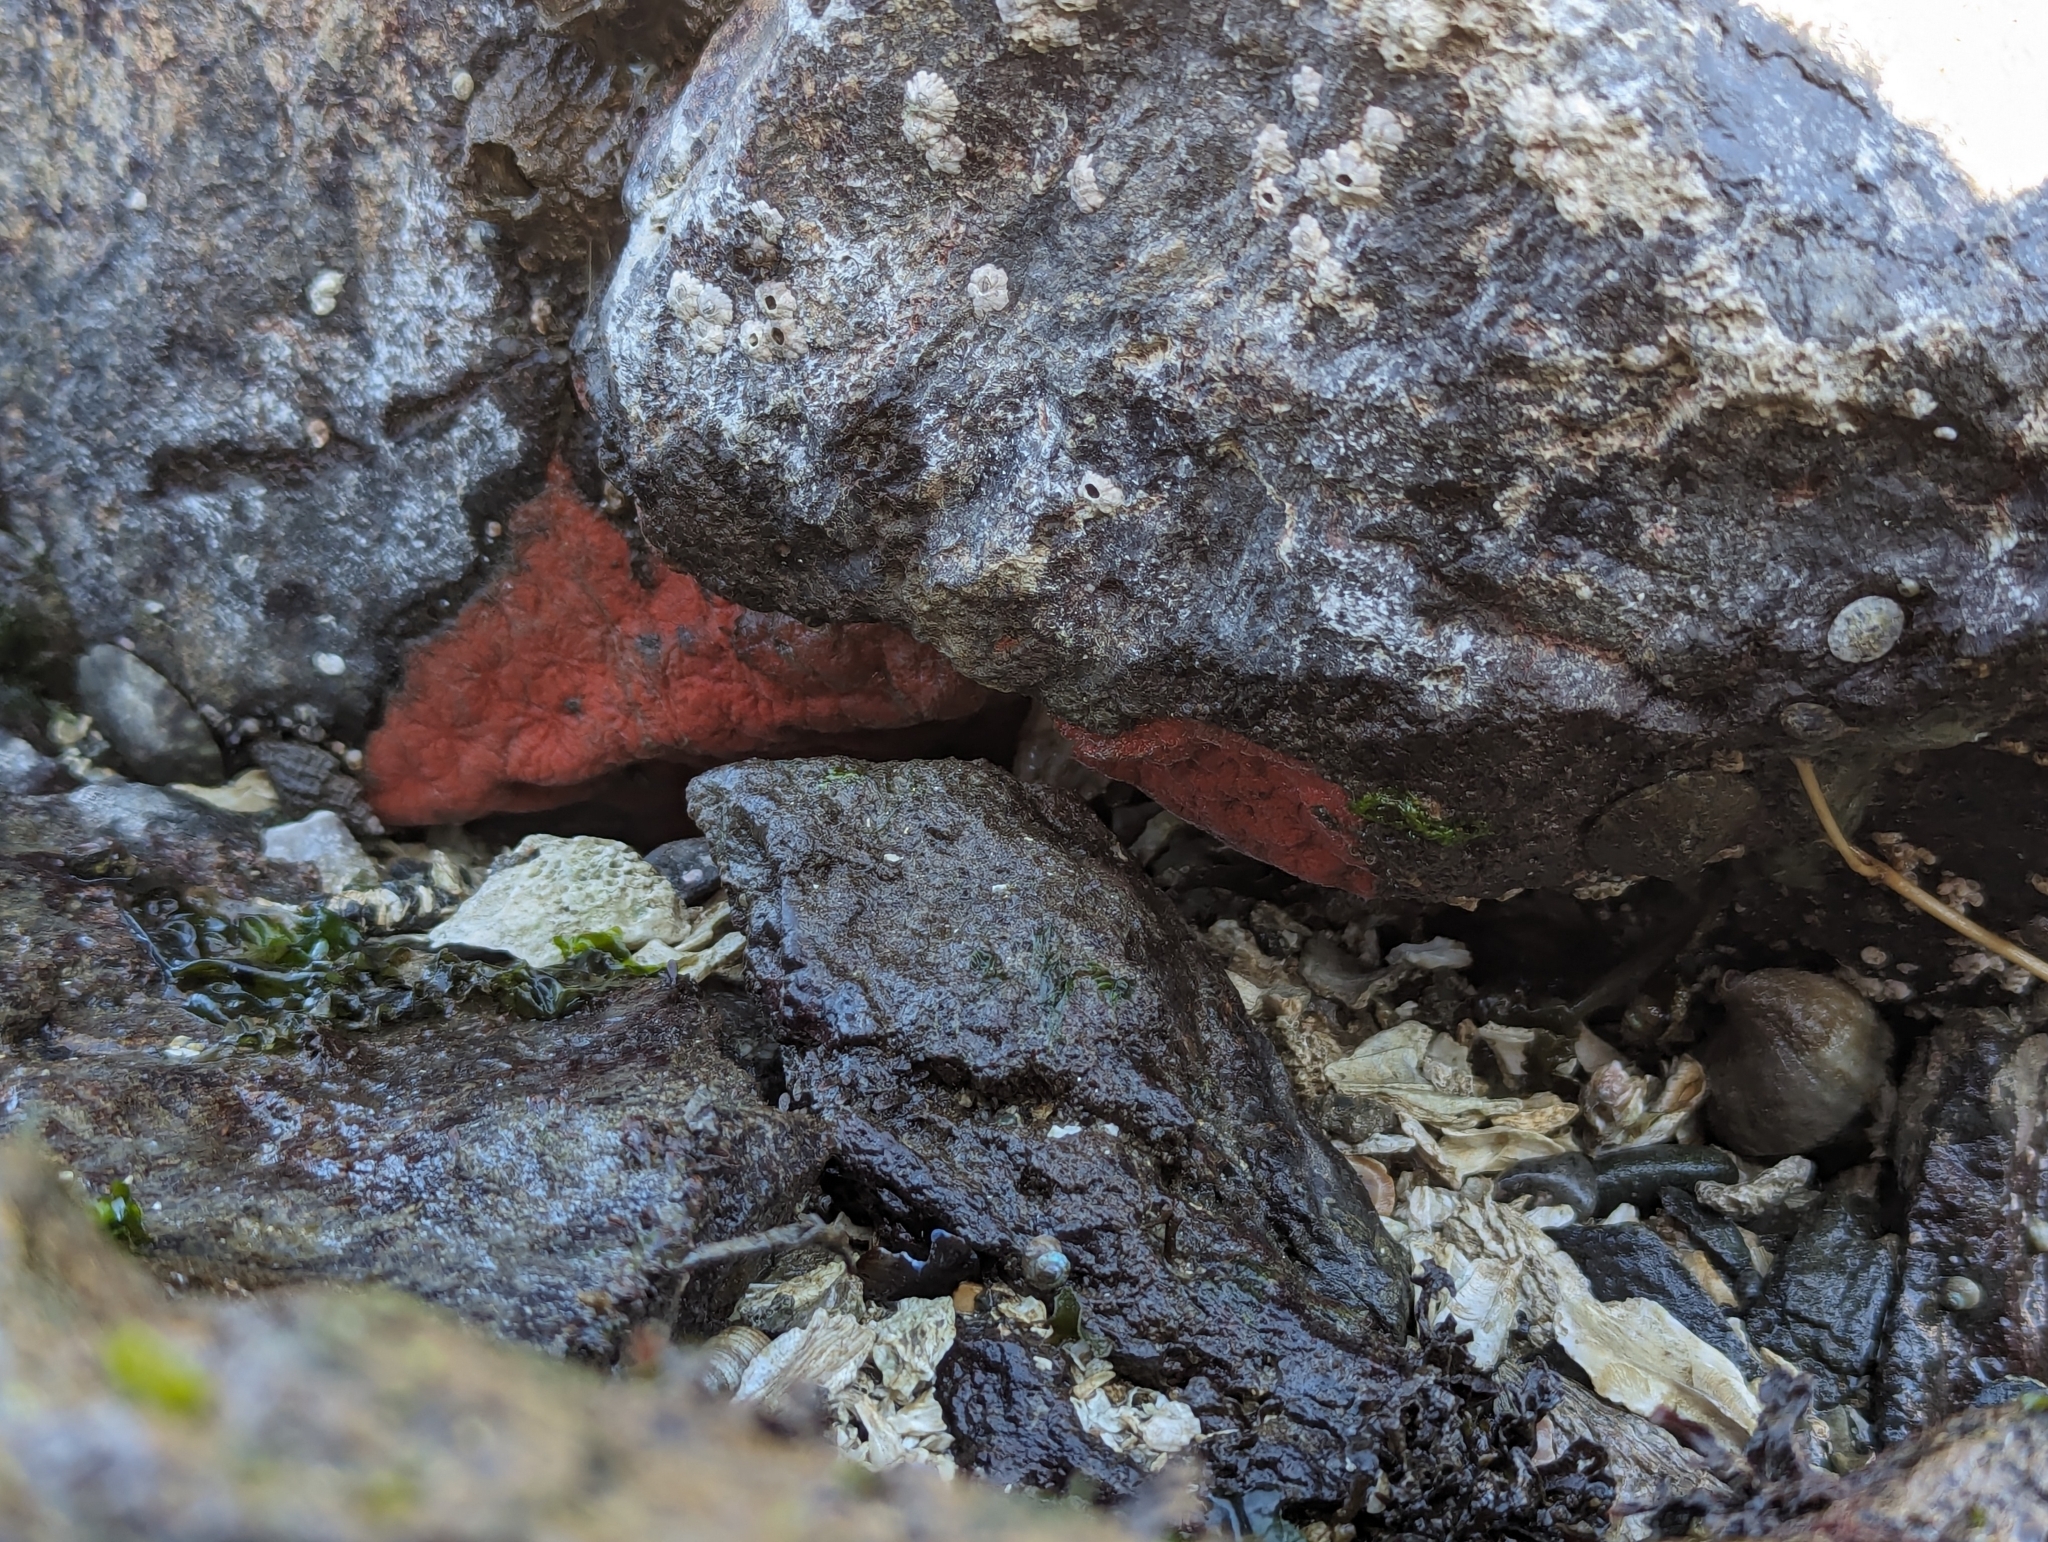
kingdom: Animalia
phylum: Mollusca
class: Polyplacophora
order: Chitonida
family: Acanthochitonidae
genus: Cryptochiton
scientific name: Cryptochiton stelleri
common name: Giant pacific chiton
